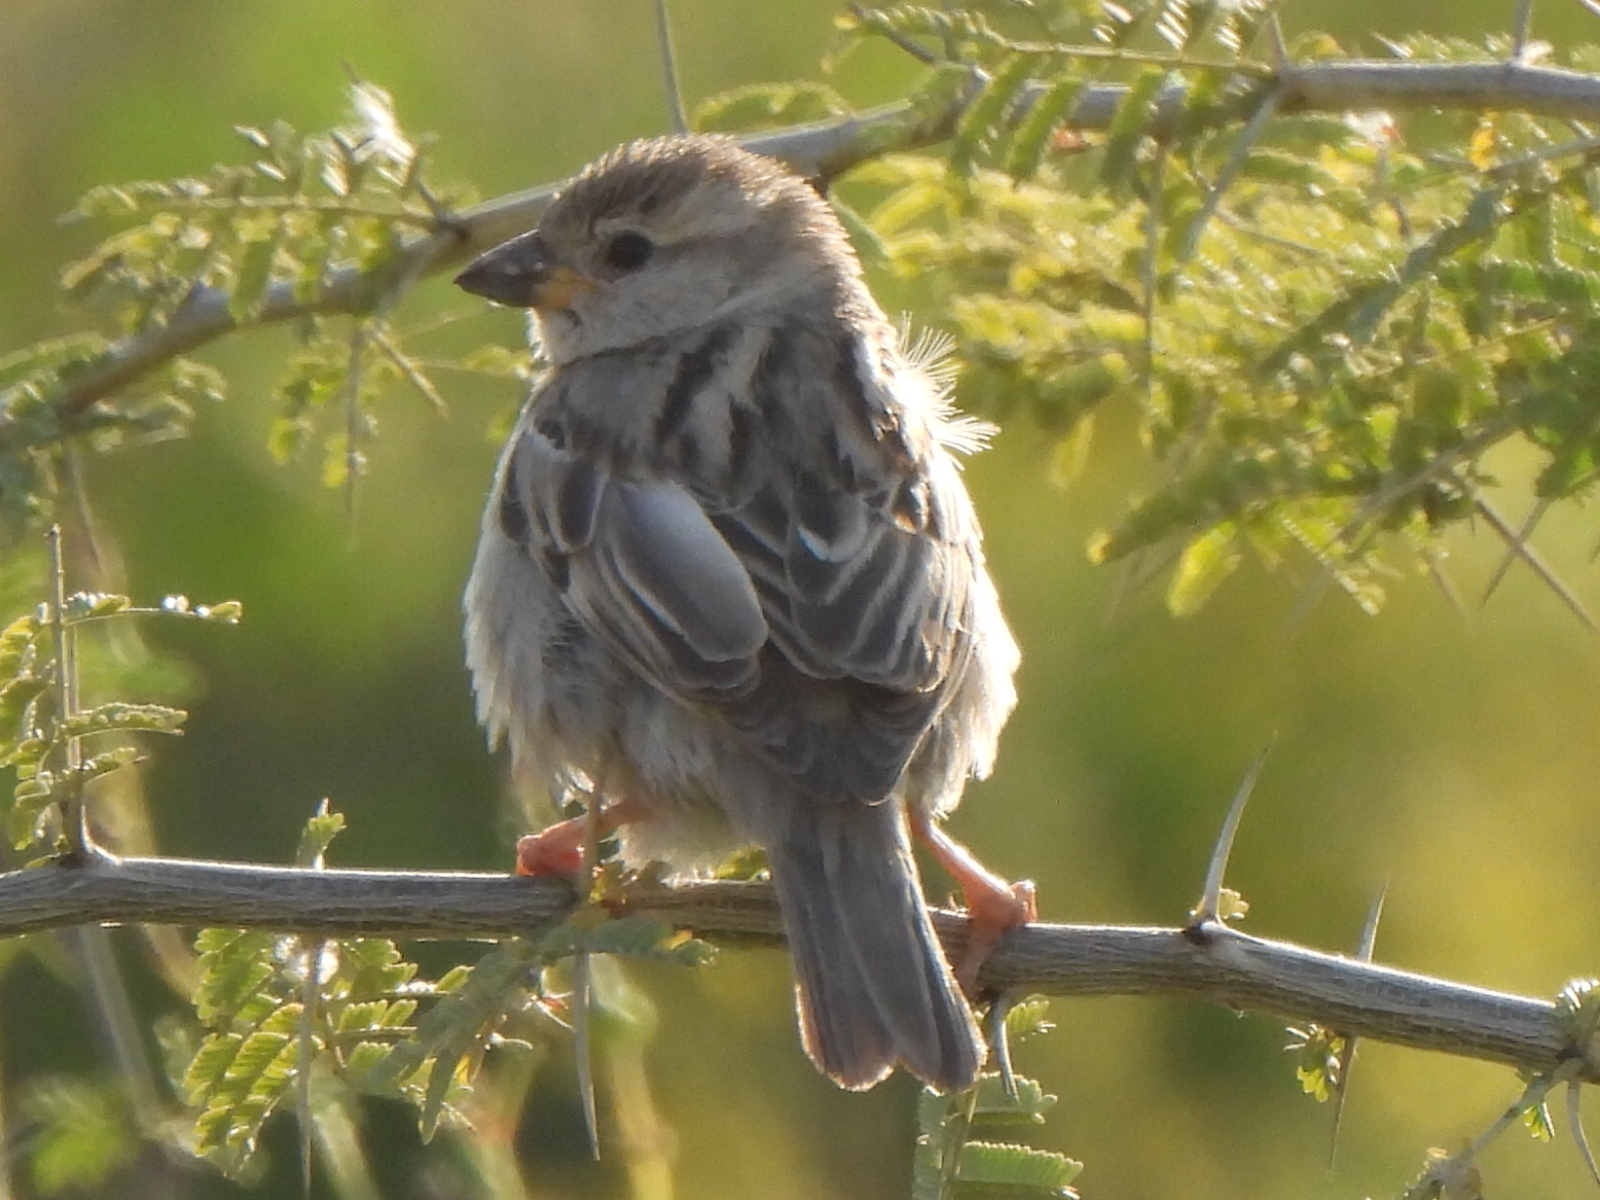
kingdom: Animalia
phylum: Chordata
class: Aves
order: Passeriformes
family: Passeridae
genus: Passer
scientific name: Passer domesticus
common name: House sparrow
